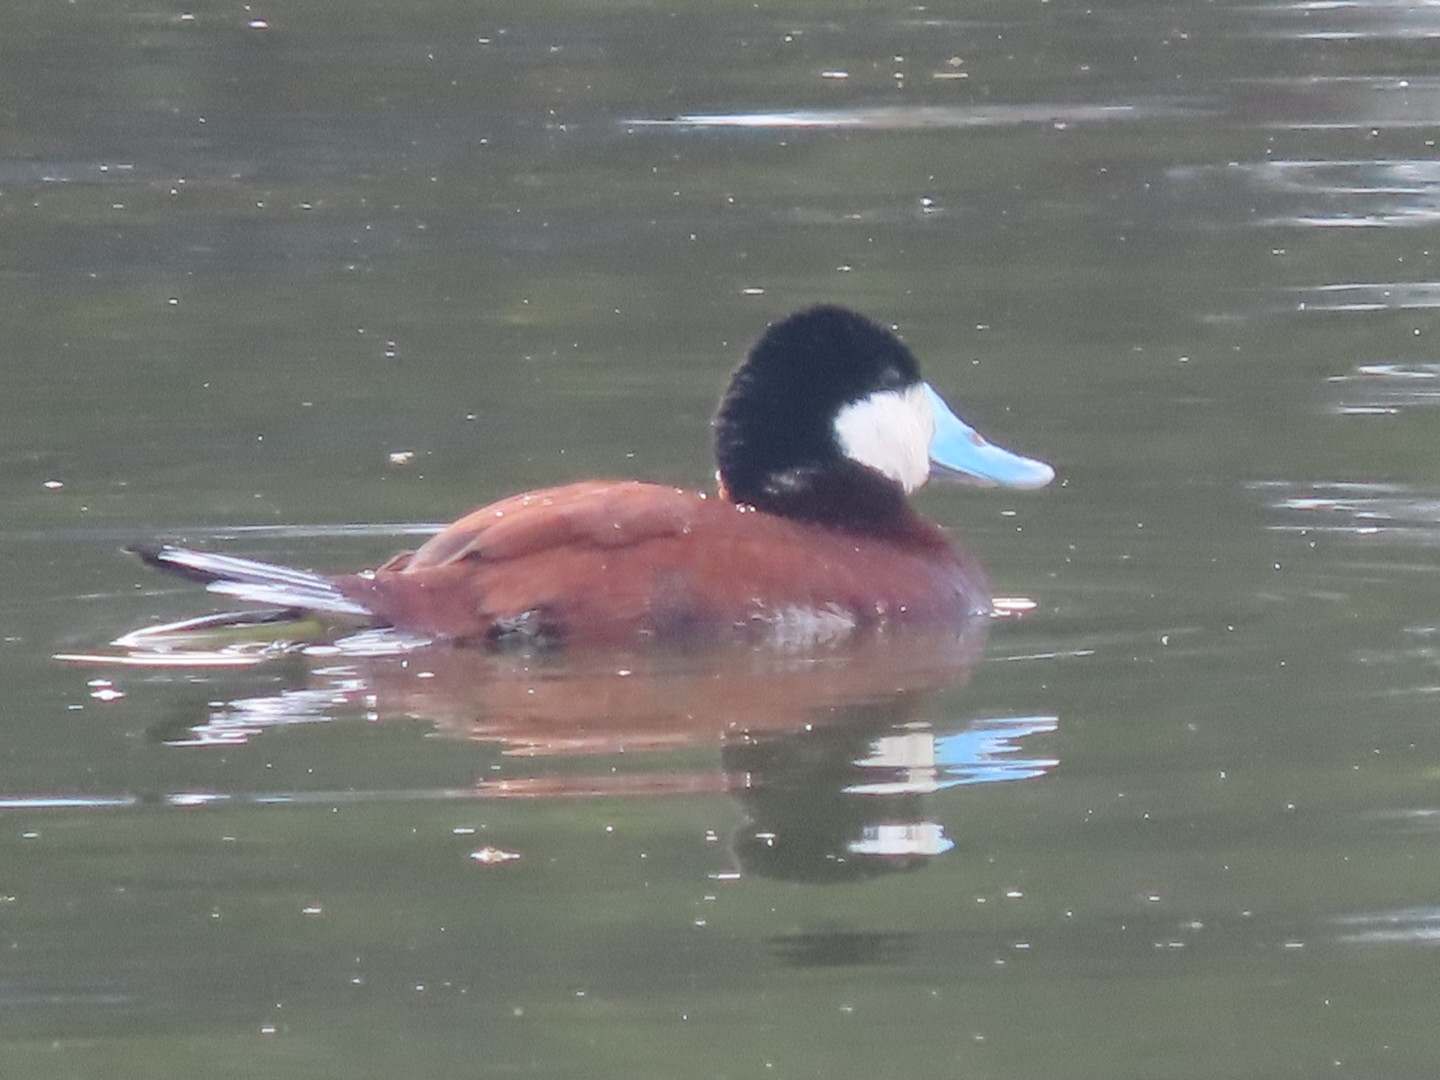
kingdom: Animalia
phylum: Chordata
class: Aves
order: Anseriformes
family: Anatidae
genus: Oxyura
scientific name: Oxyura jamaicensis
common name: Ruddy duck
